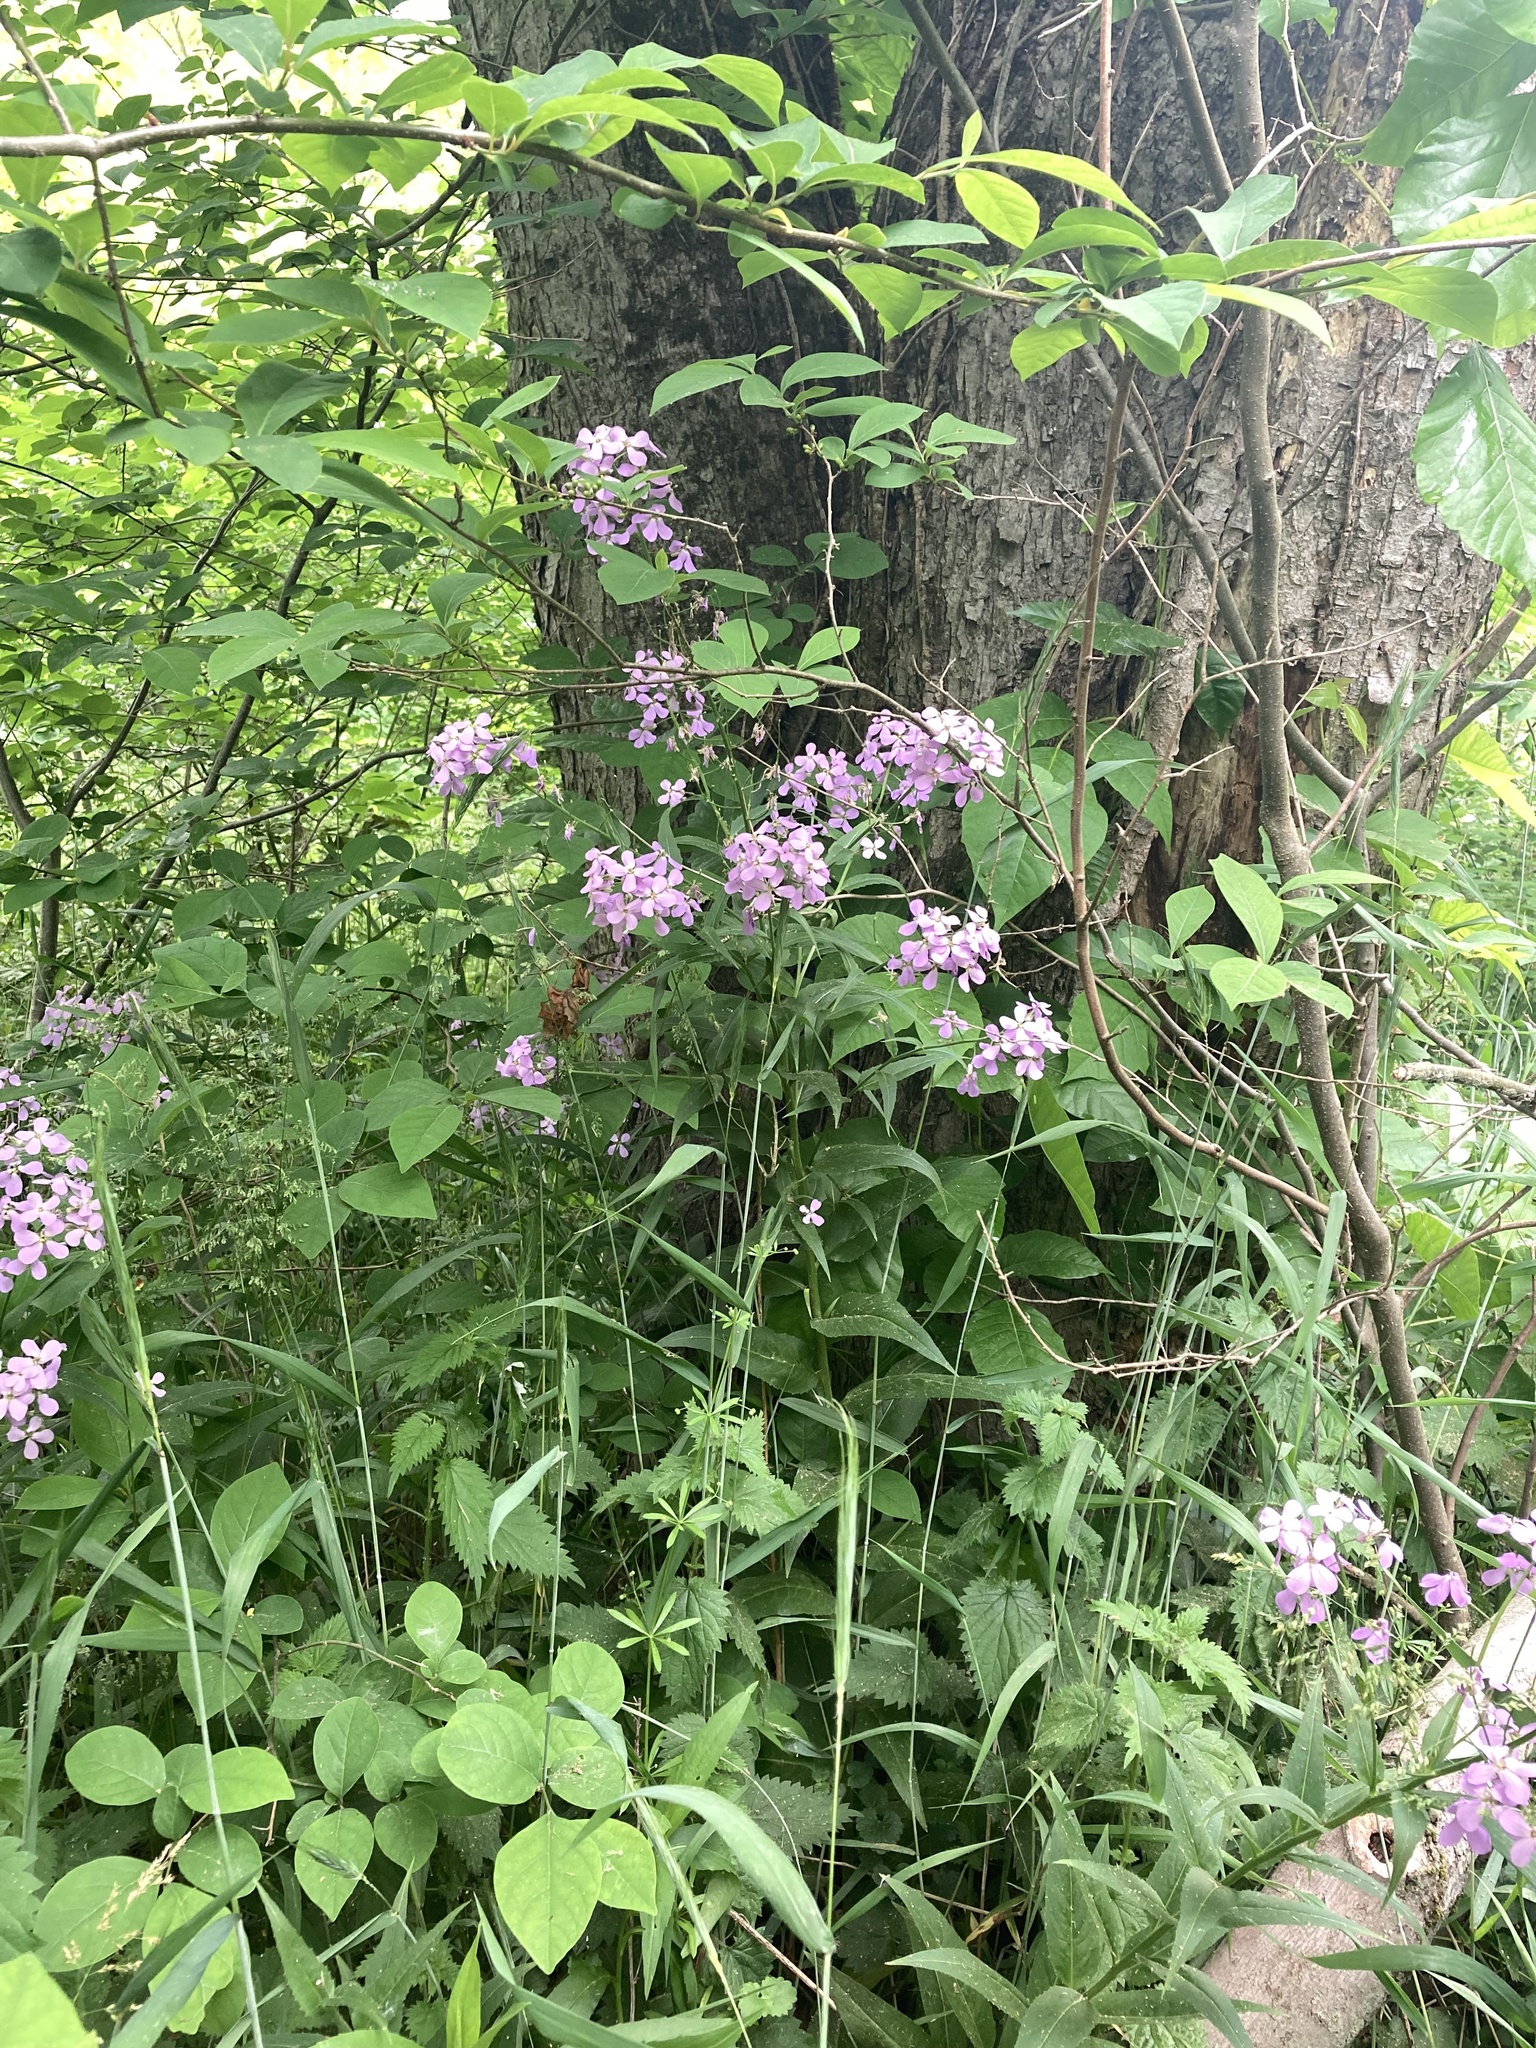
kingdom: Plantae
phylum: Tracheophyta
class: Magnoliopsida
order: Brassicales
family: Brassicaceae
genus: Hesperis
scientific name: Hesperis matronalis
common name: Dame's-violet
